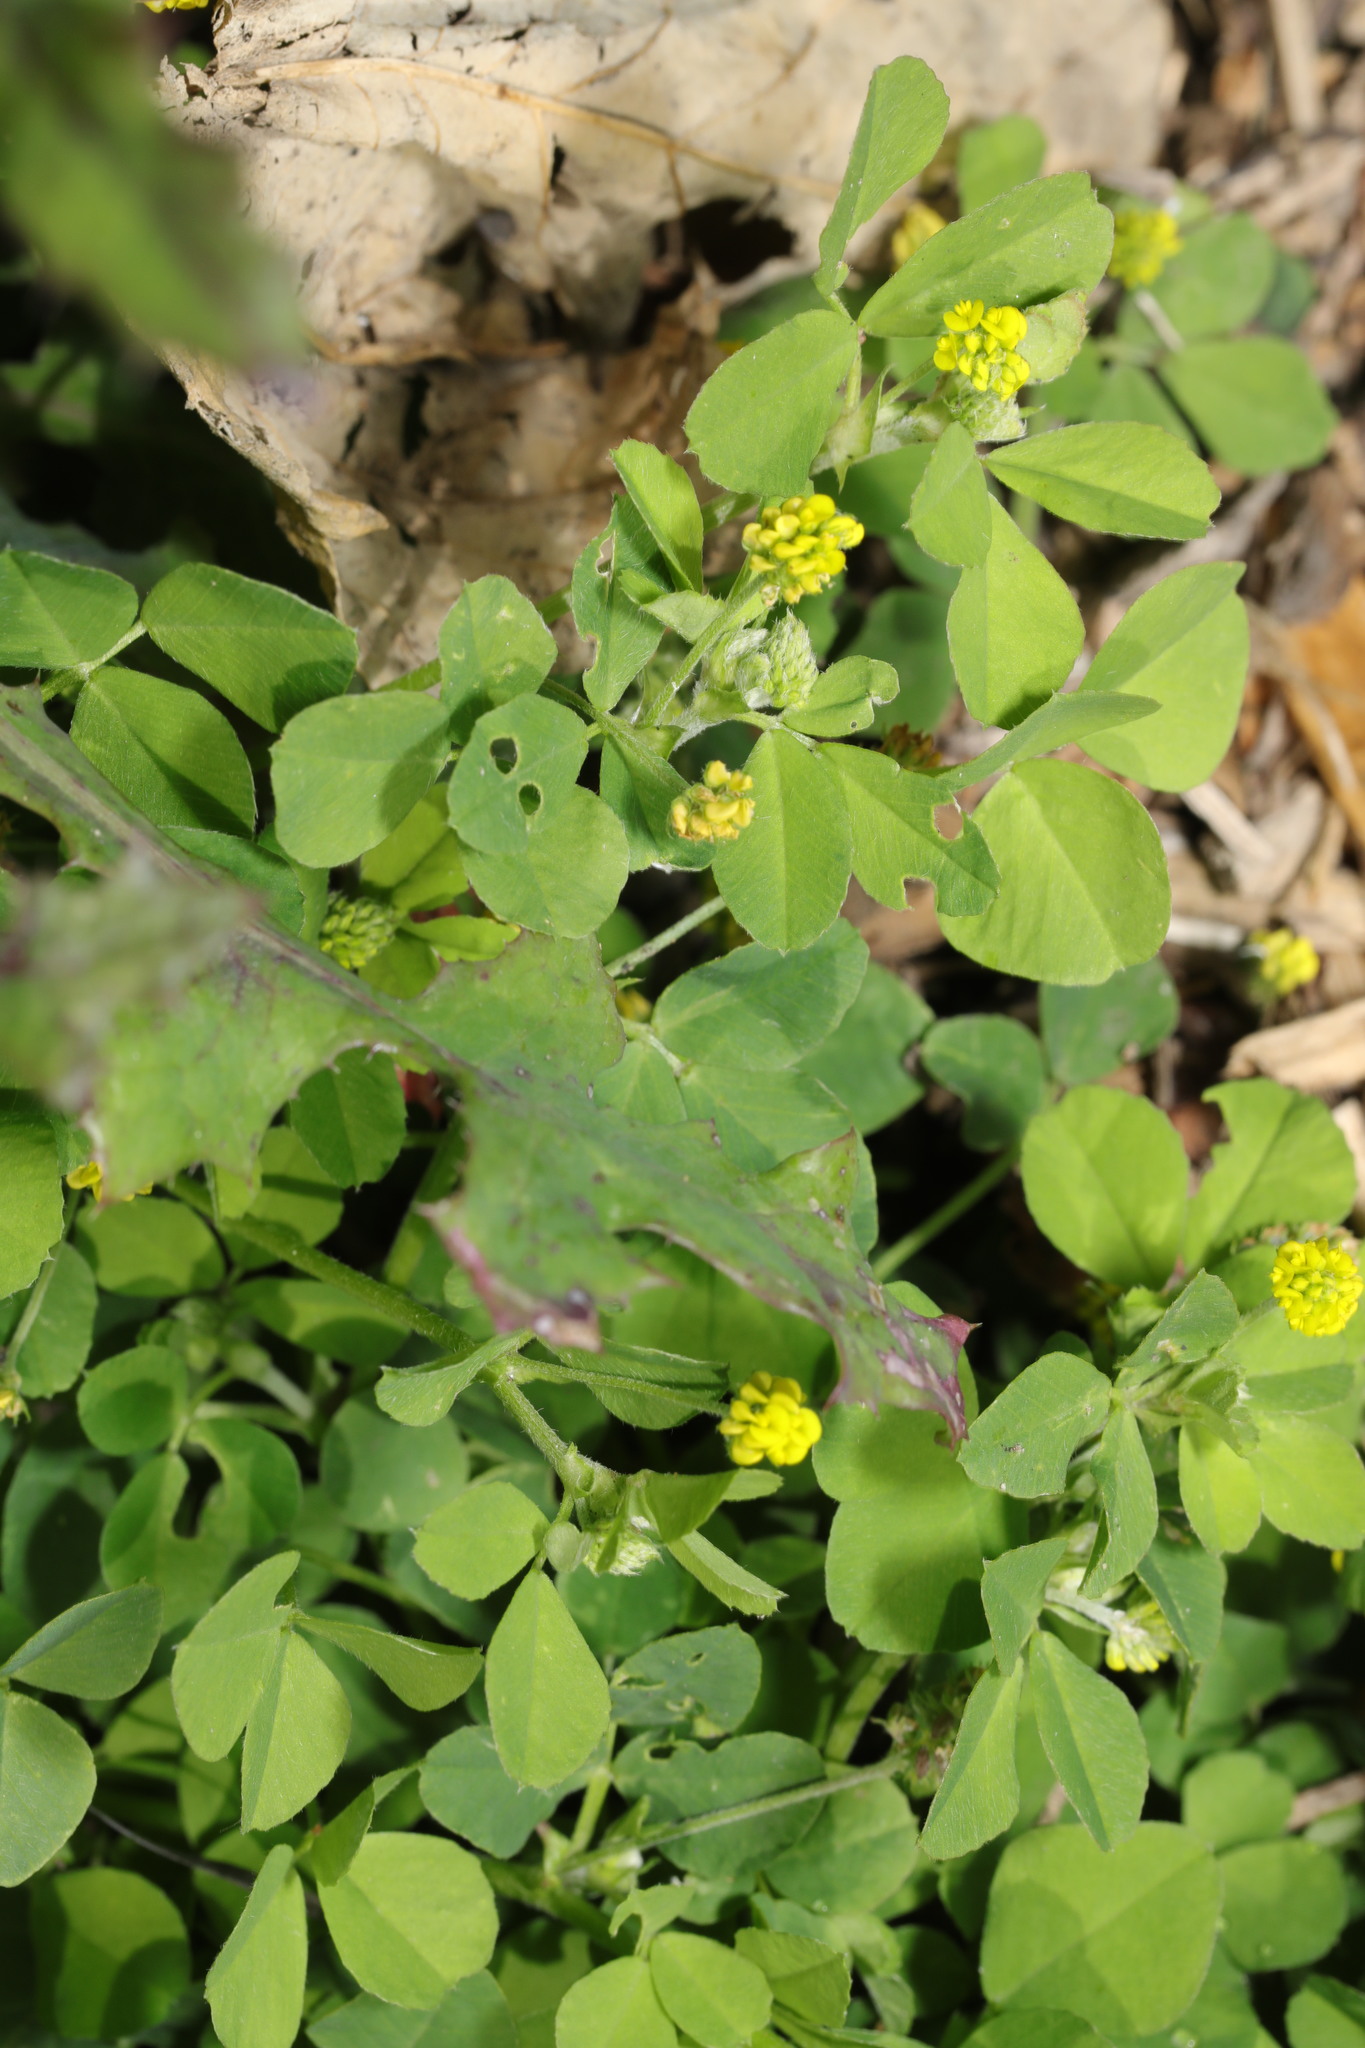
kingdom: Plantae
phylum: Tracheophyta
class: Magnoliopsida
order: Fabales
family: Fabaceae
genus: Medicago
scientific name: Medicago lupulina
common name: Black medick
